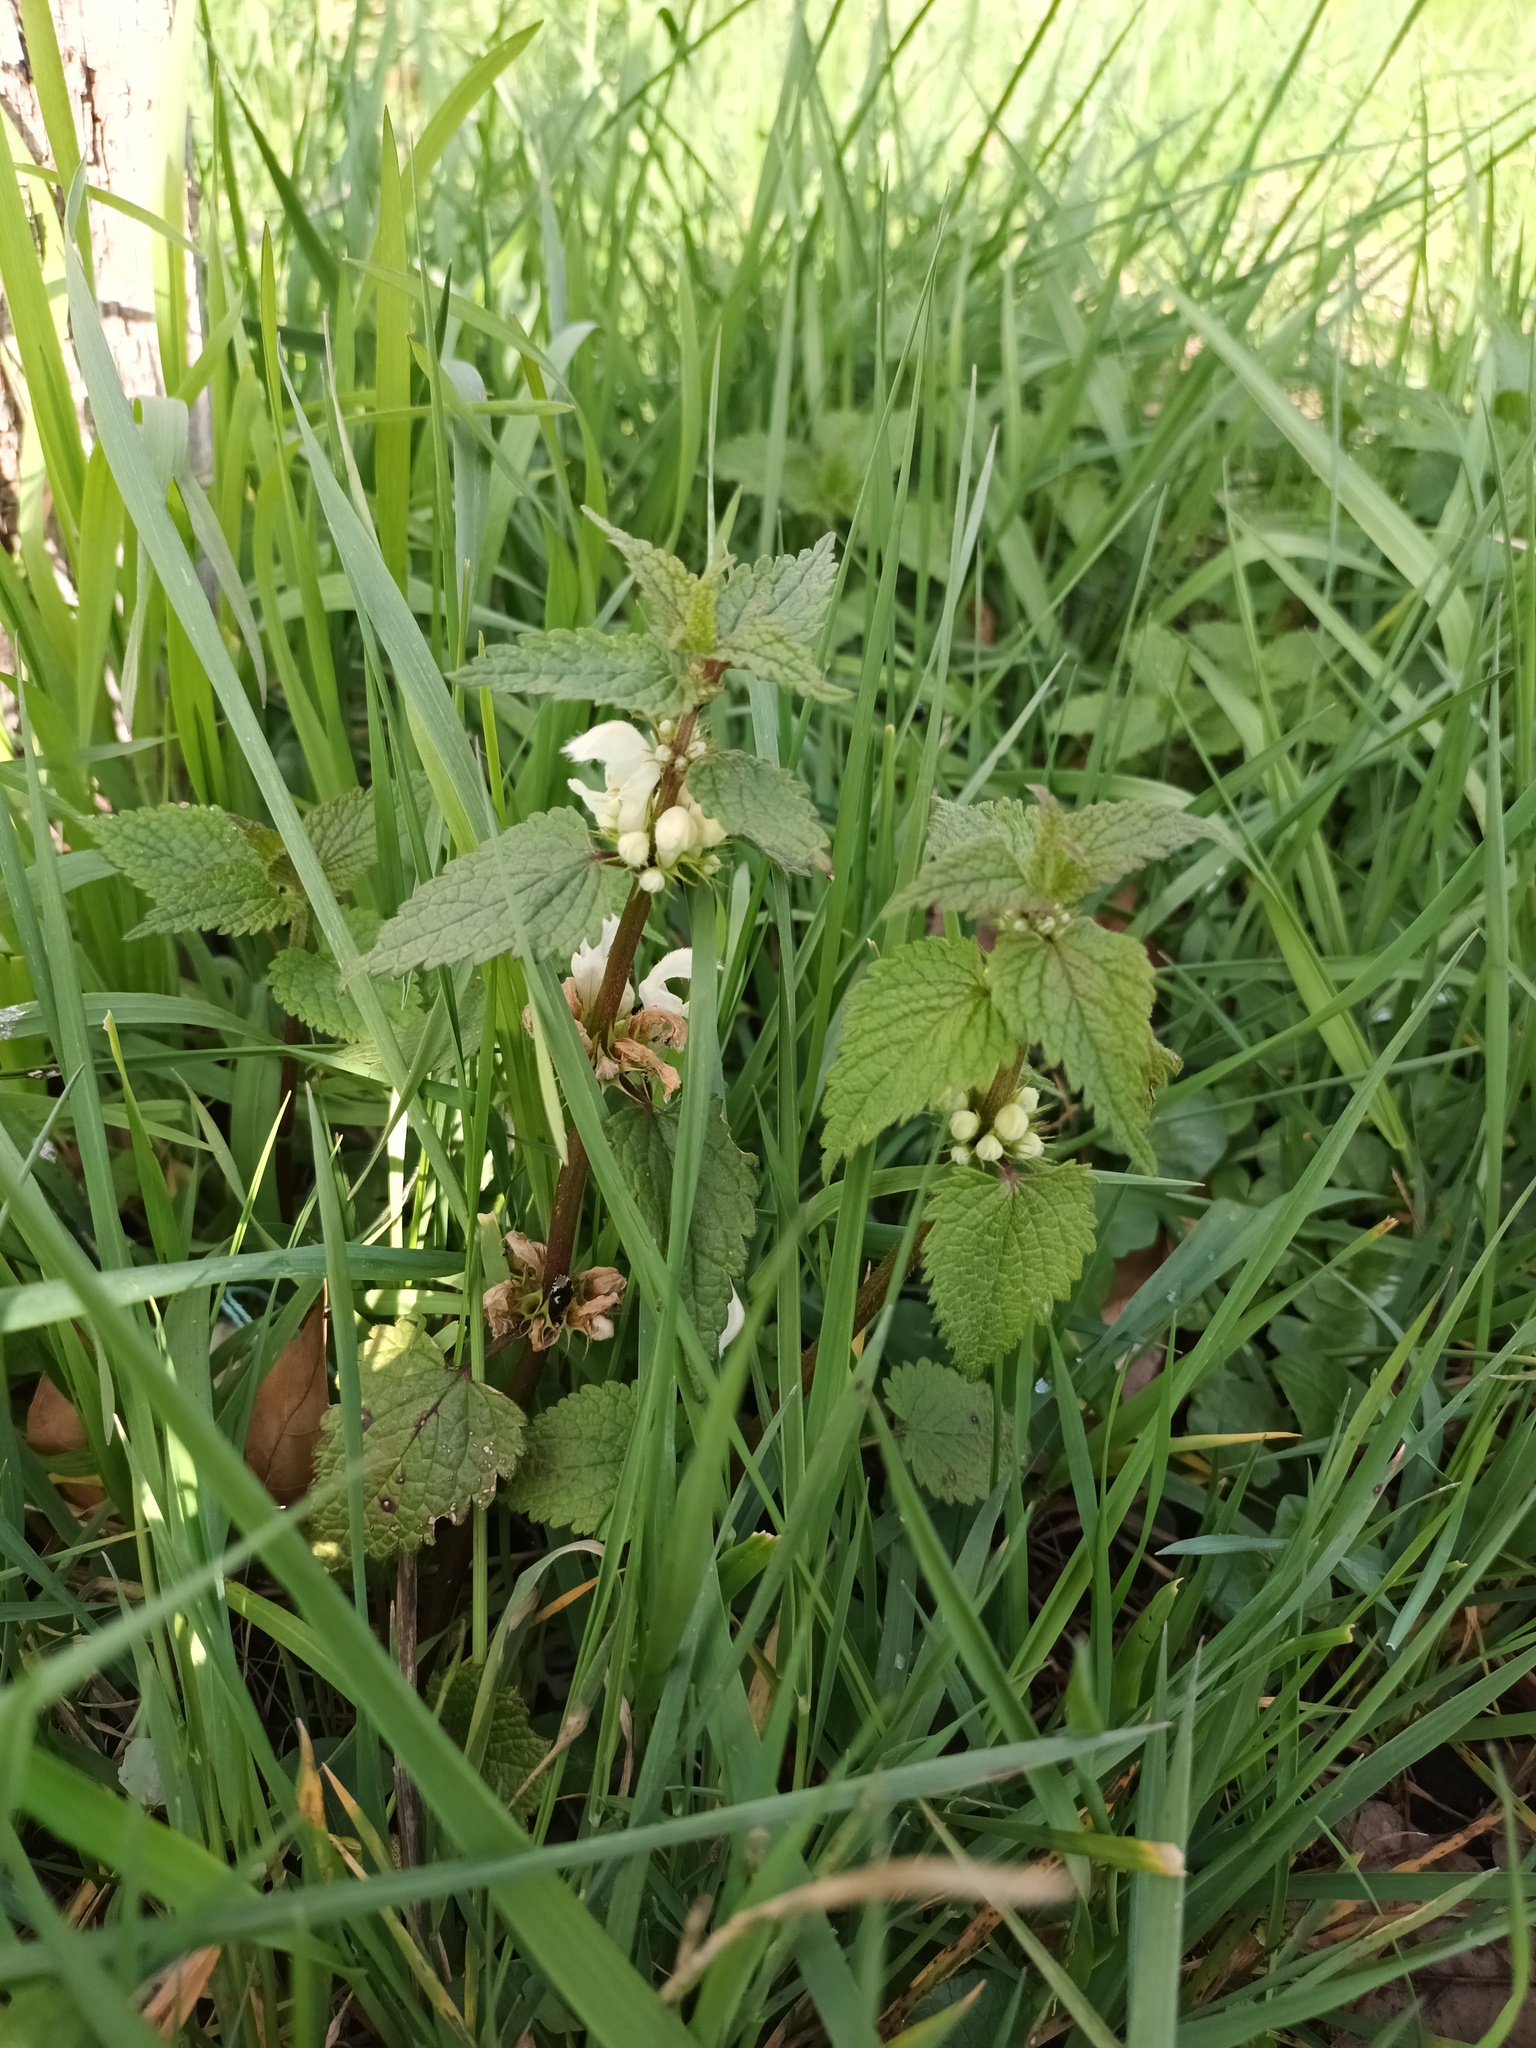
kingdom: Plantae
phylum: Tracheophyta
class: Magnoliopsida
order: Lamiales
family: Lamiaceae
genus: Lamium
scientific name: Lamium album
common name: White dead-nettle
